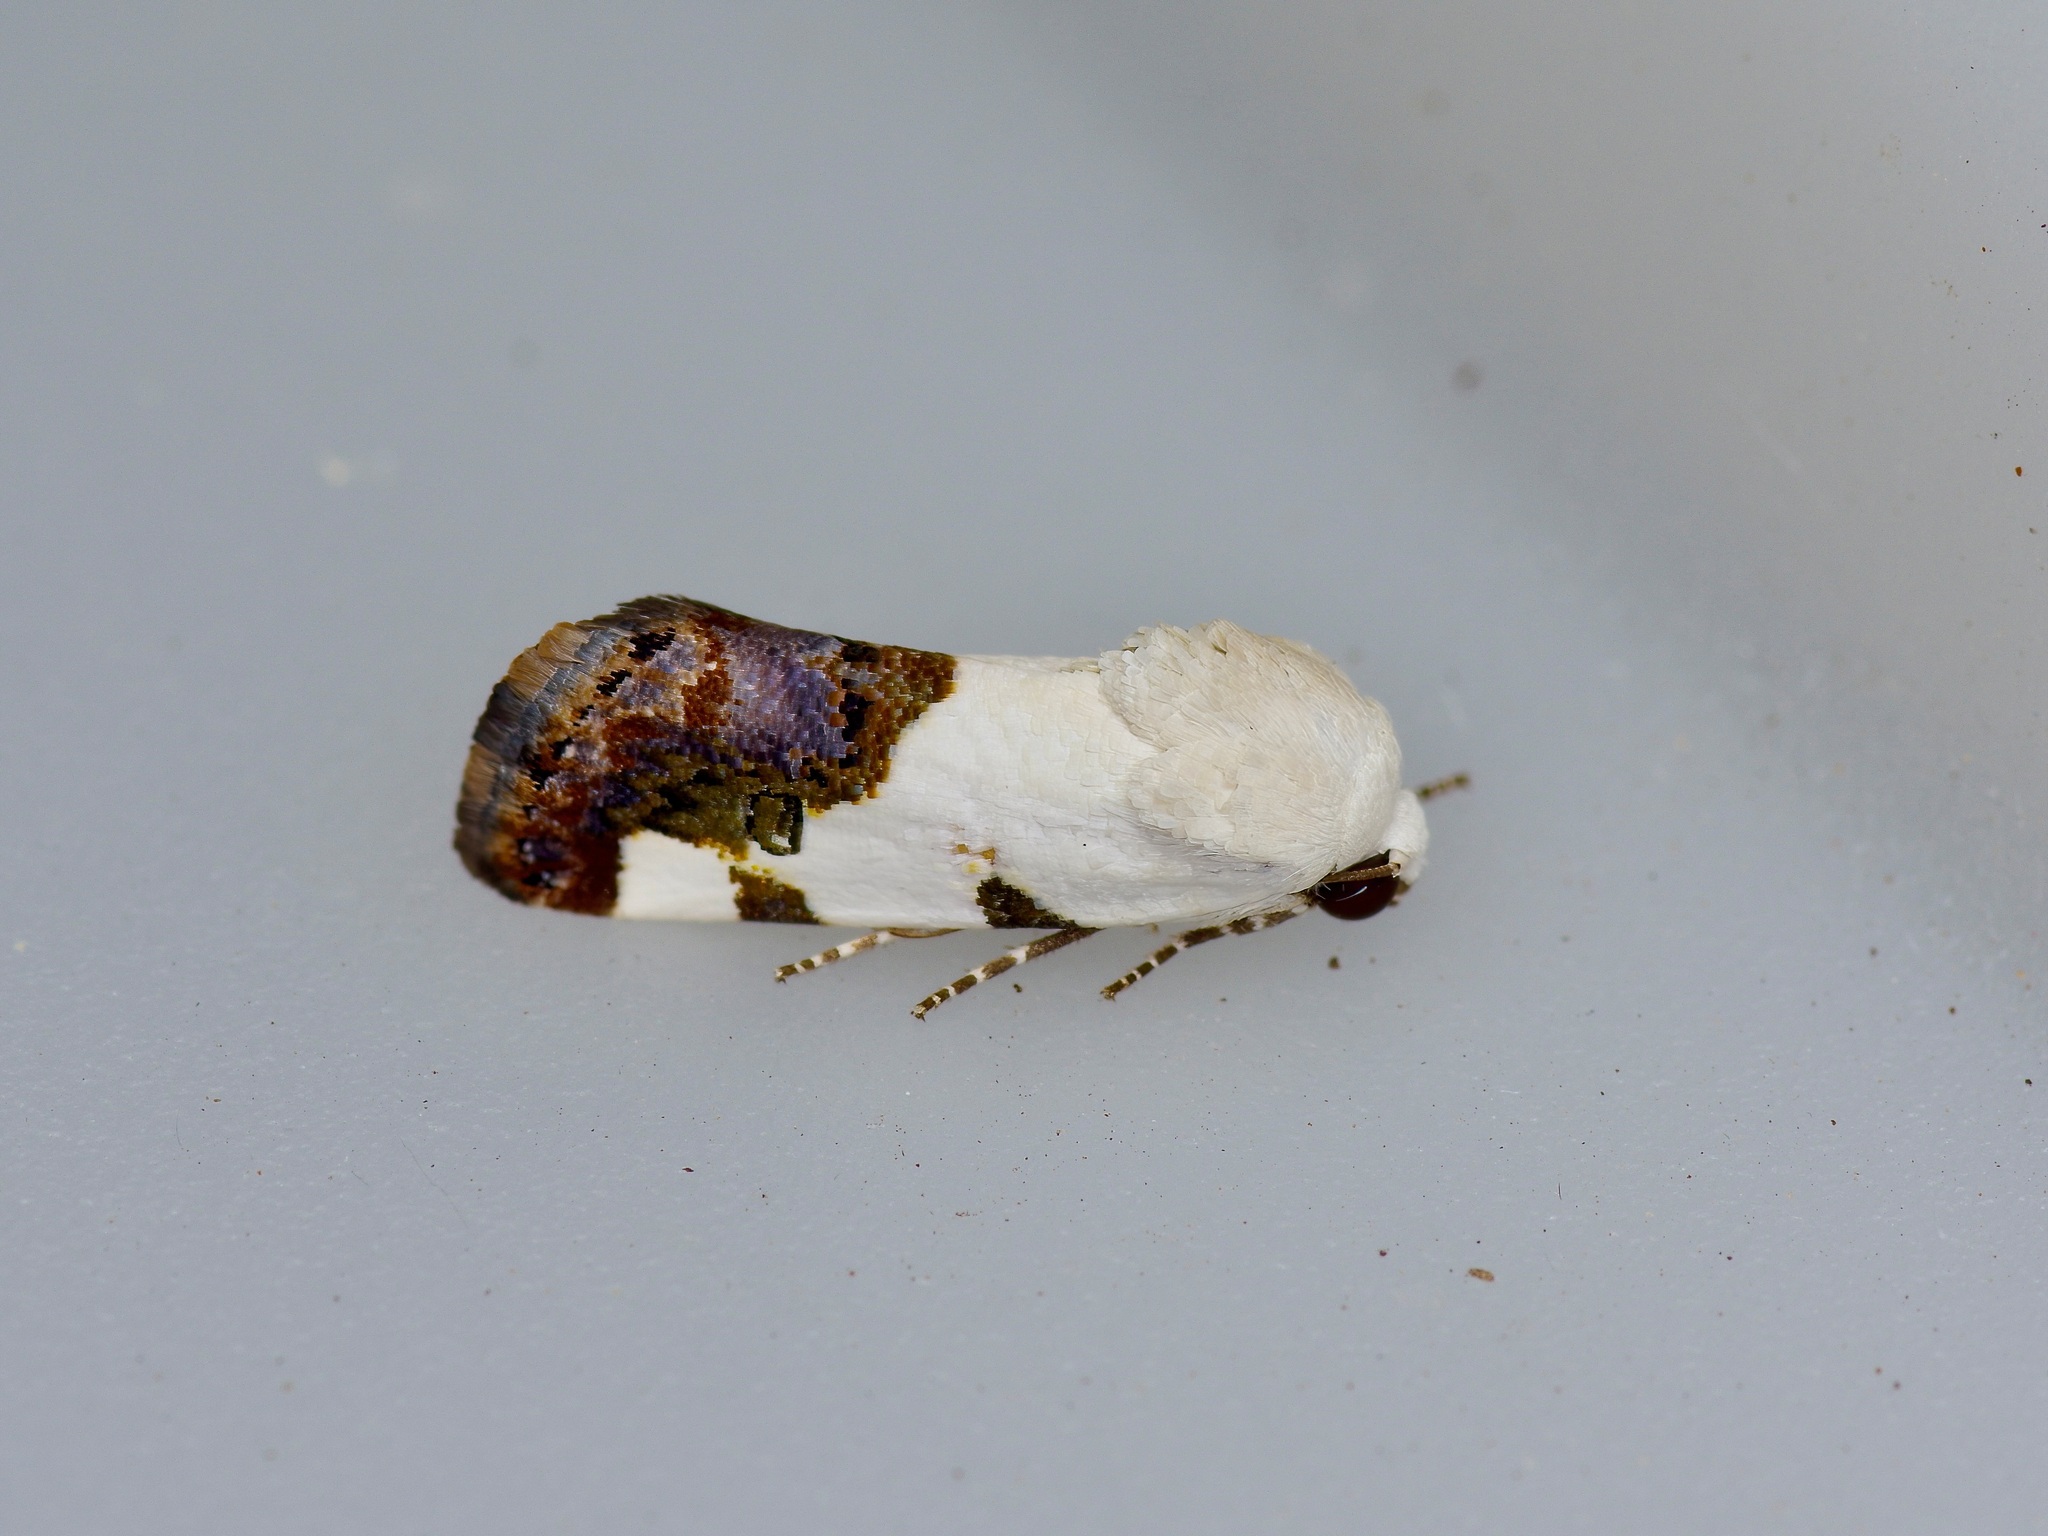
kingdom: Animalia
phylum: Arthropoda
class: Insecta
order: Lepidoptera
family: Noctuidae
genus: Acontia
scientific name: Acontia quadriplaga
